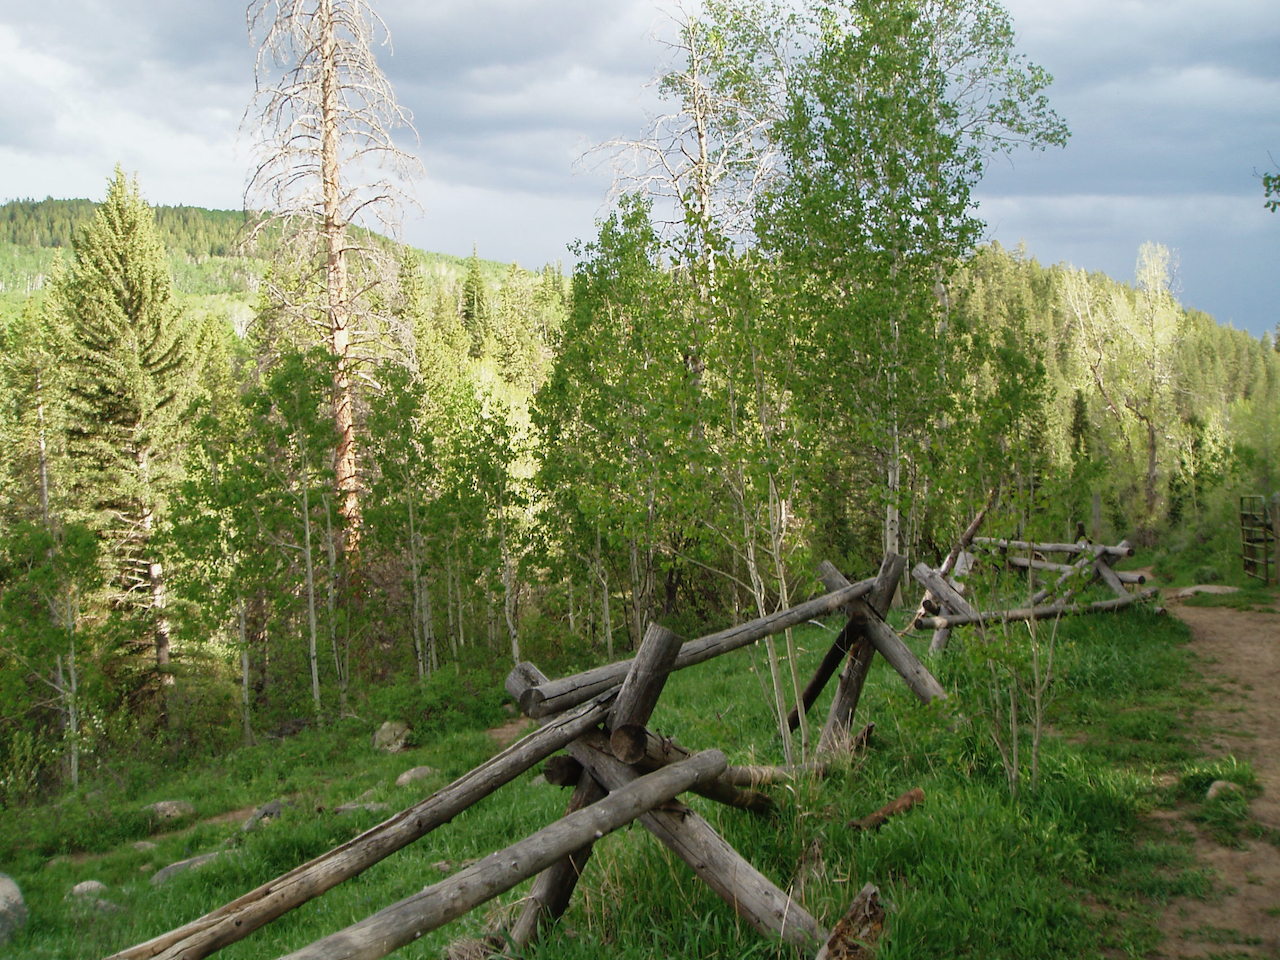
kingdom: Plantae
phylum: Tracheophyta
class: Magnoliopsida
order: Malpighiales
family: Salicaceae
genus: Populus
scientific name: Populus tremuloides
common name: Quaking aspen
